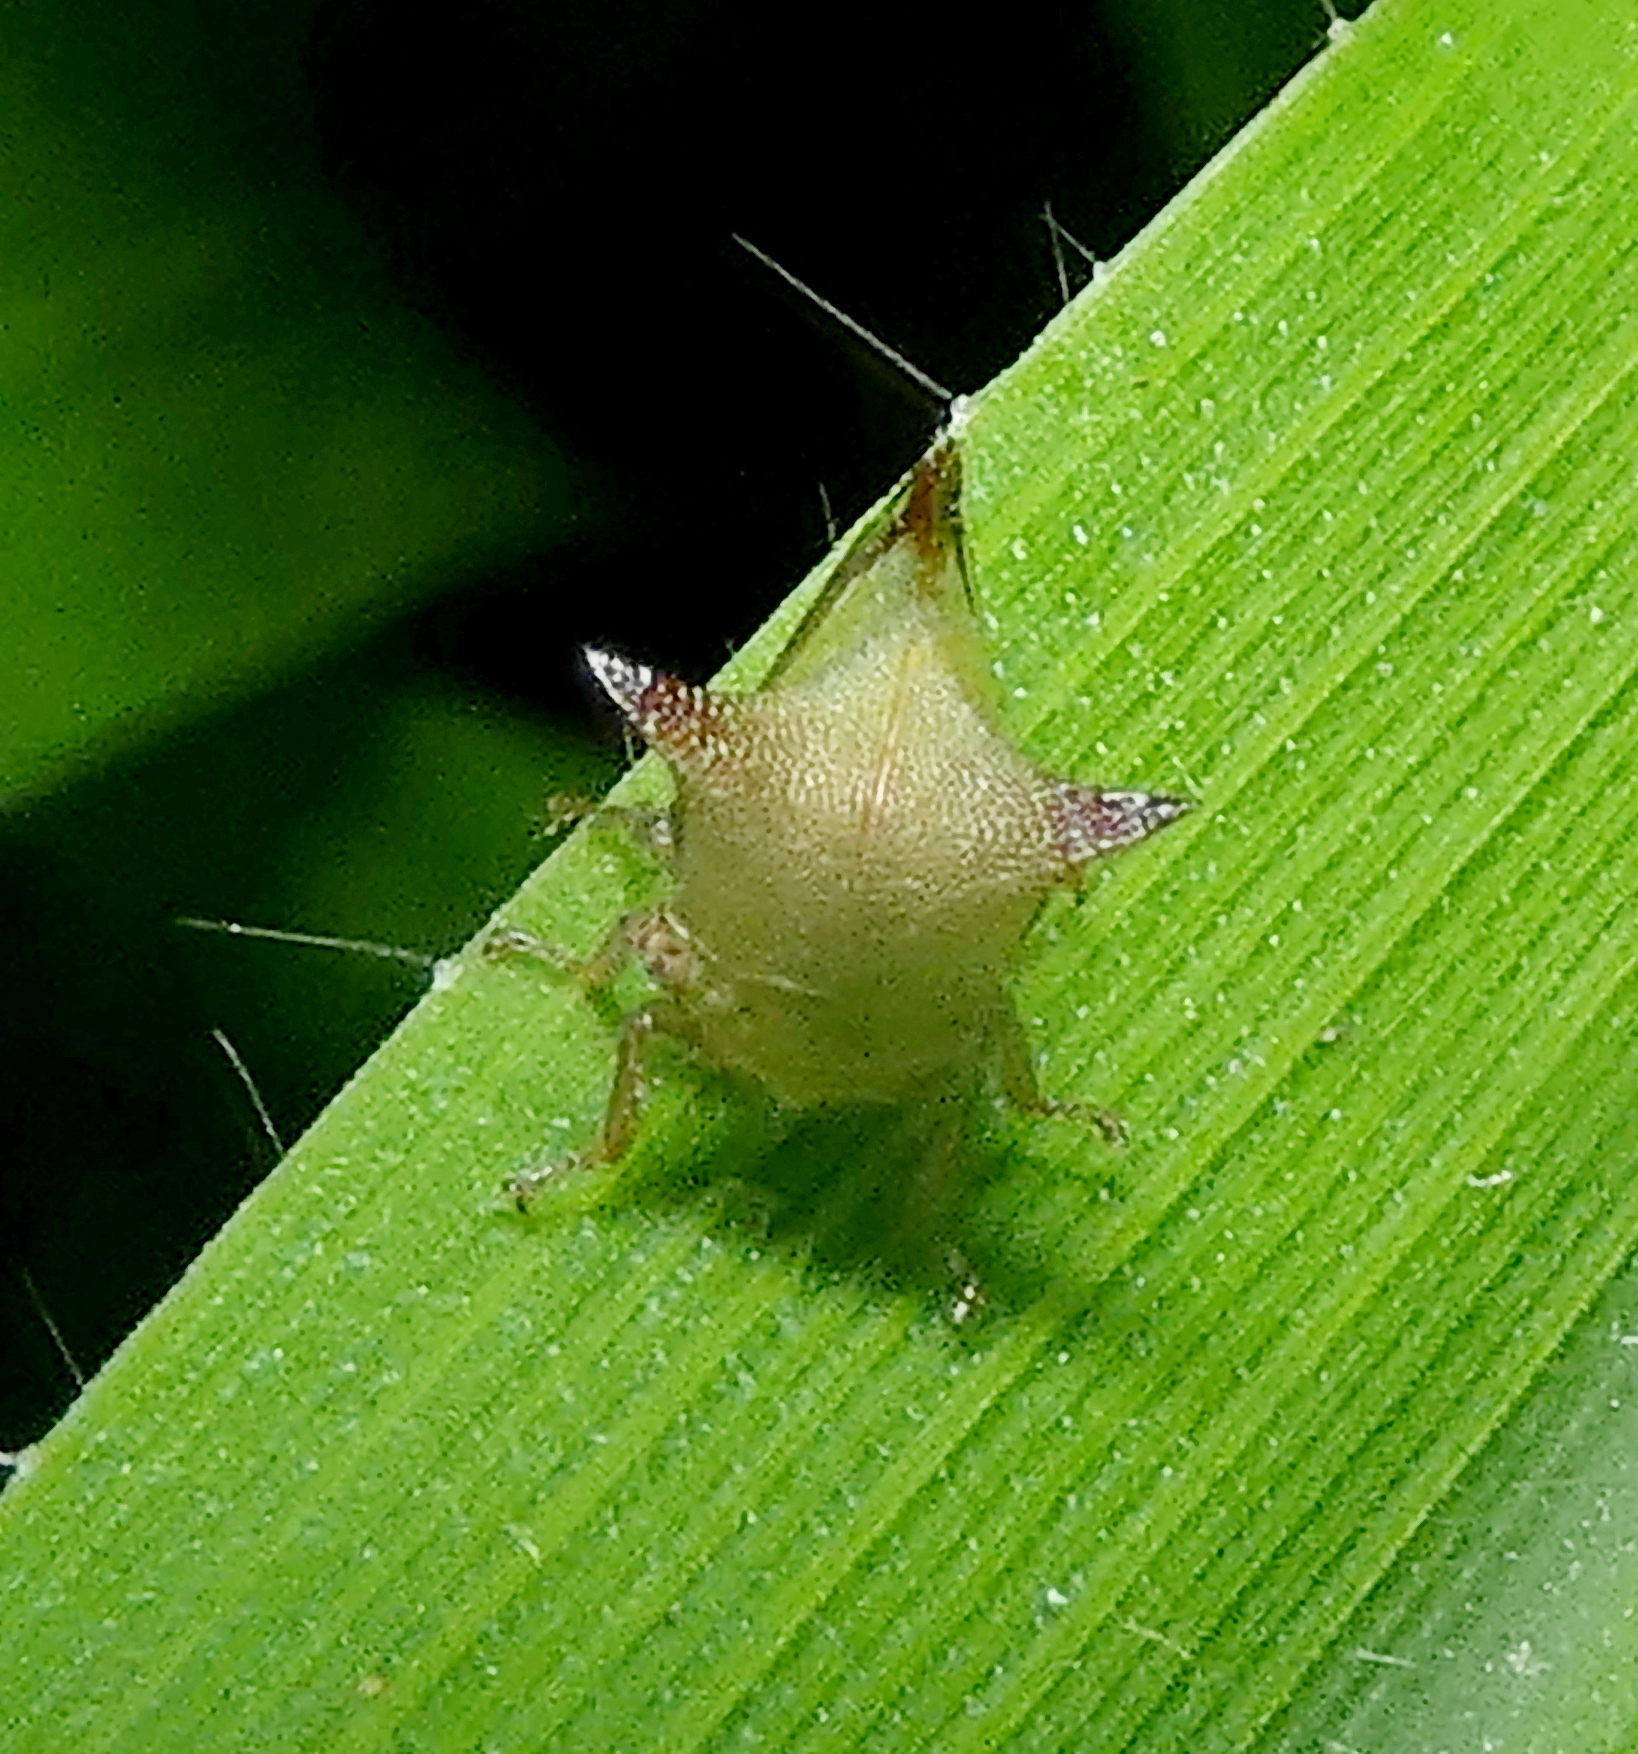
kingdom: Animalia
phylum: Arthropoda
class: Insecta
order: Hemiptera
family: Membracidae
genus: Ceresa
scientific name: Ceresa ustulata
